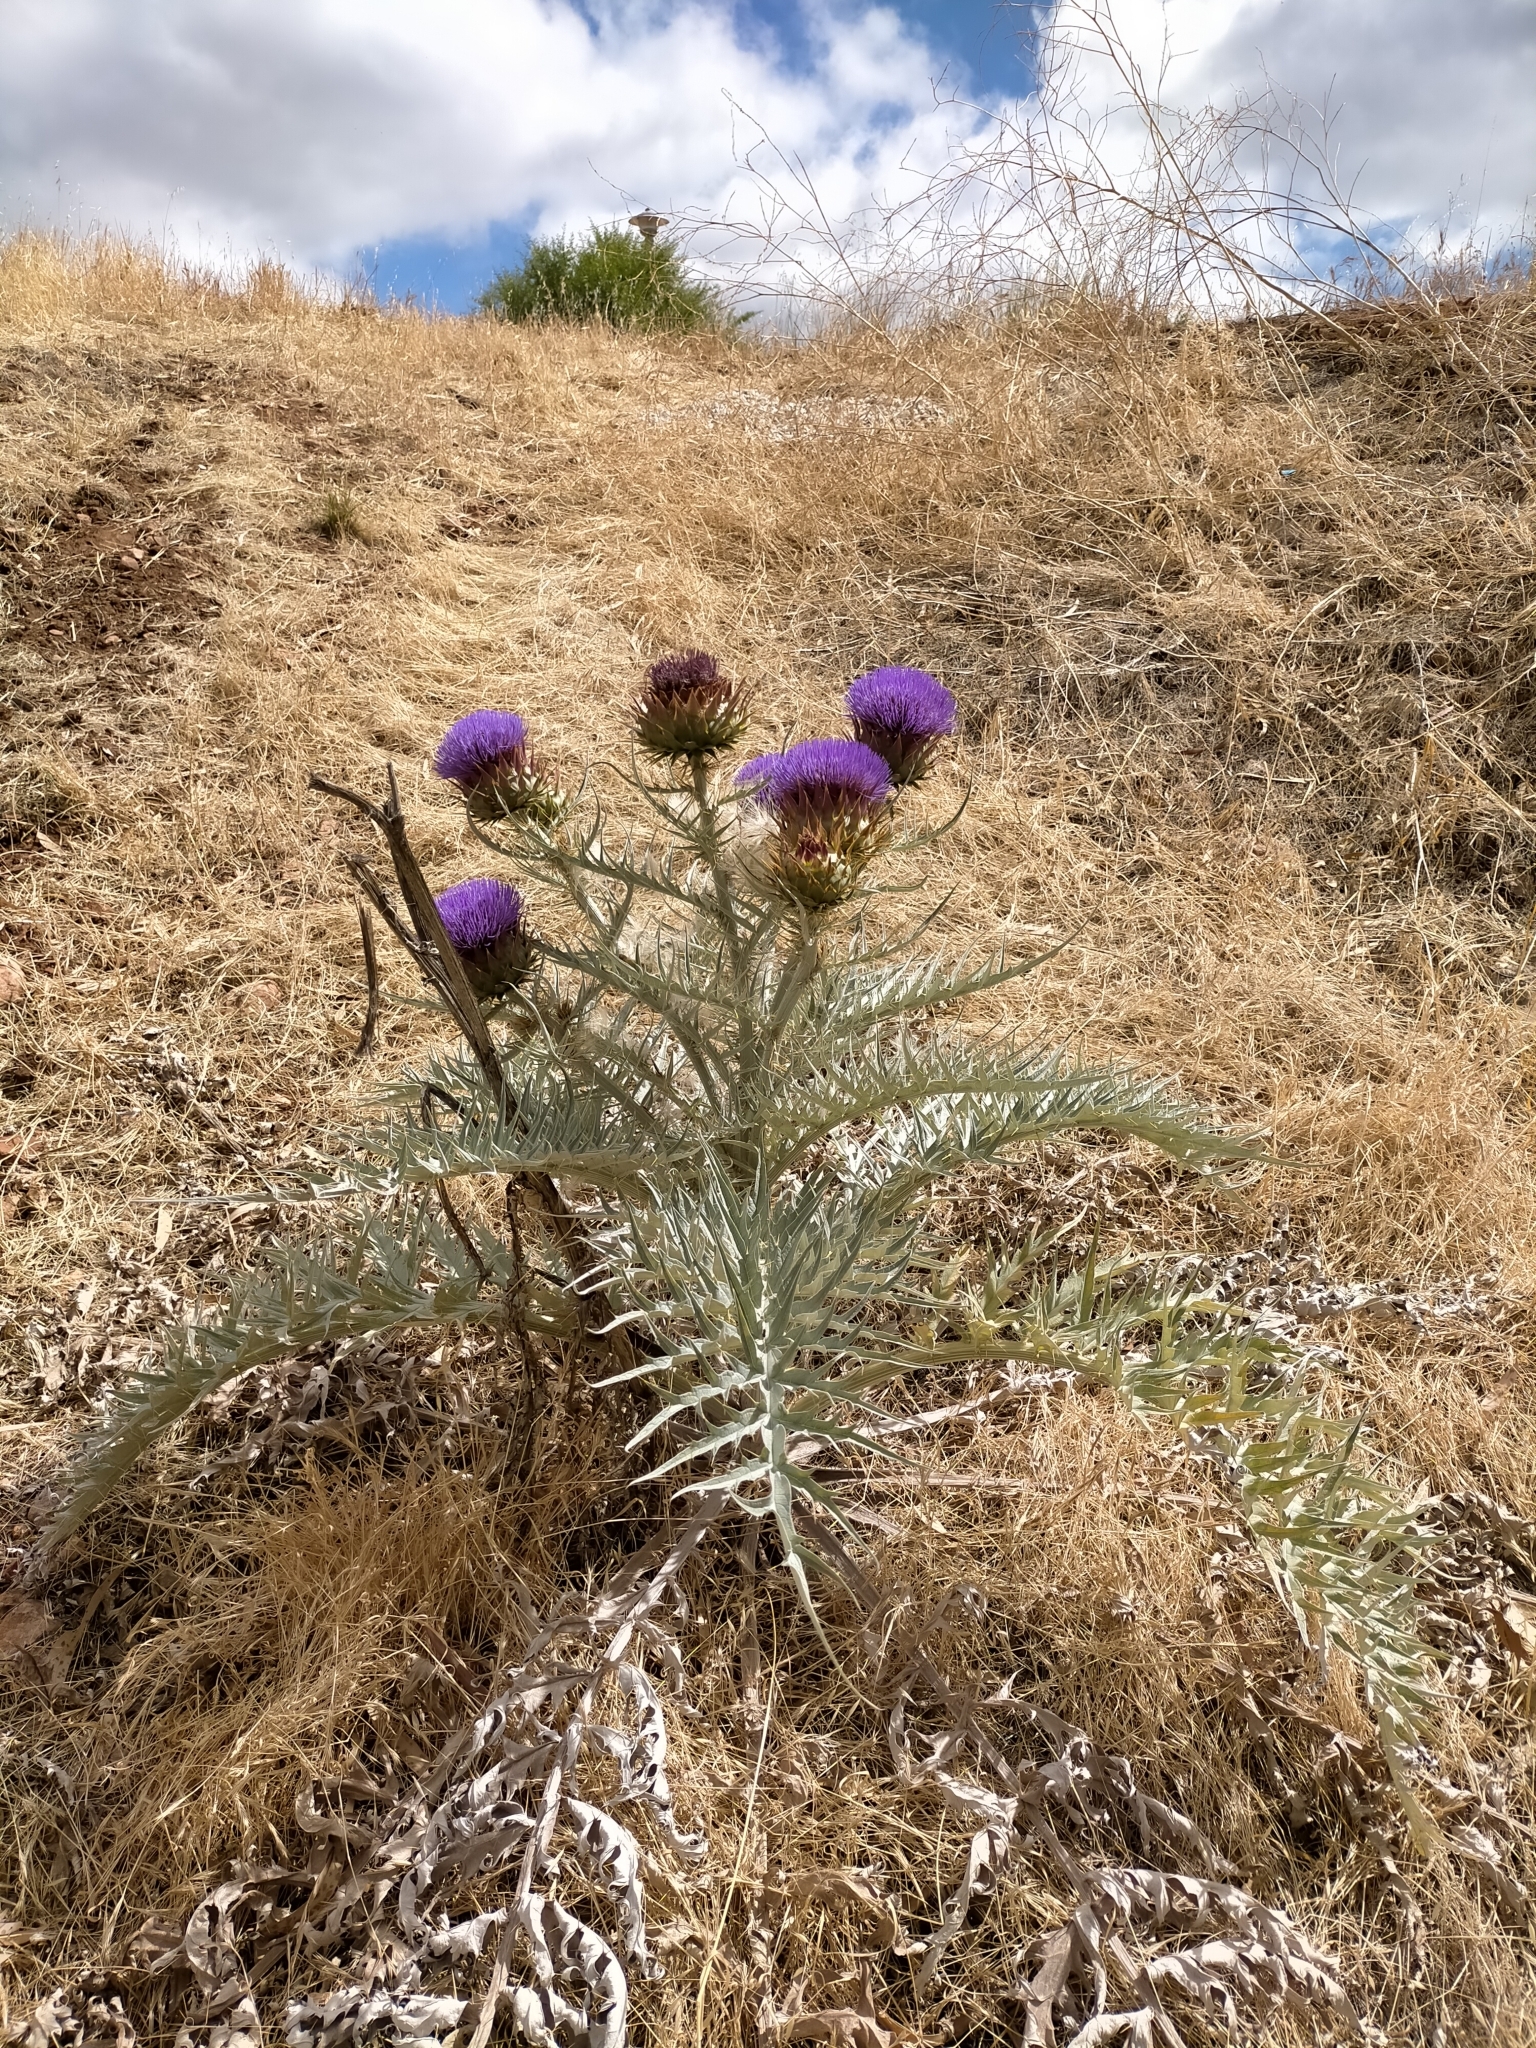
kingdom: Plantae
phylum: Tracheophyta
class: Magnoliopsida
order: Asterales
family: Asteraceae
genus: Cynara
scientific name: Cynara cardunculus
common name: Globe artichoke
